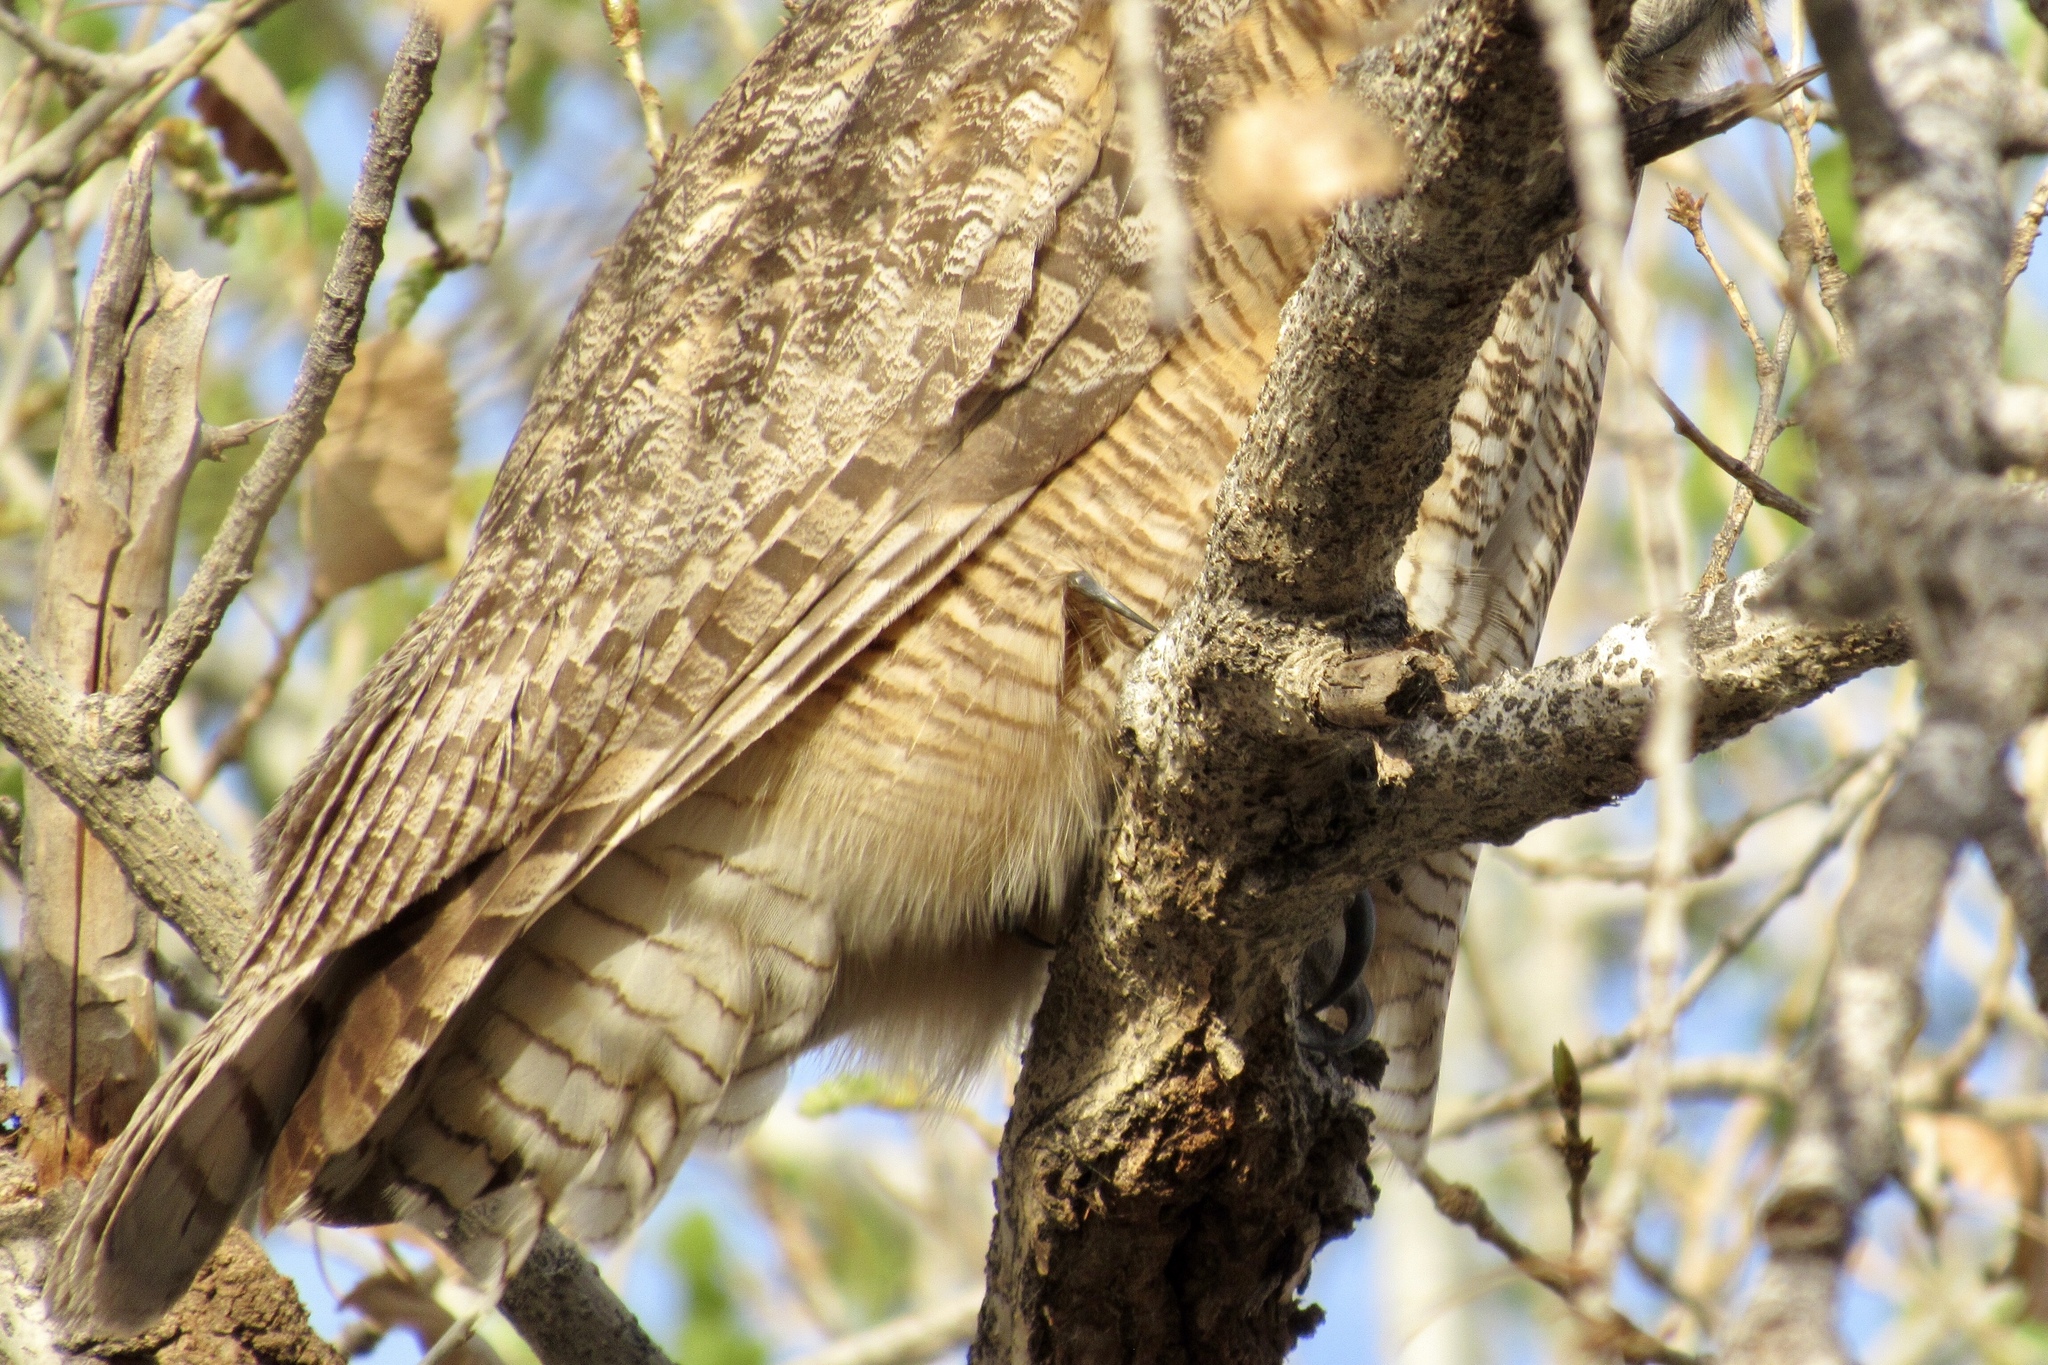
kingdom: Animalia
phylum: Chordata
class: Aves
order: Strigiformes
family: Strigidae
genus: Bubo
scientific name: Bubo virginianus
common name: Great horned owl
